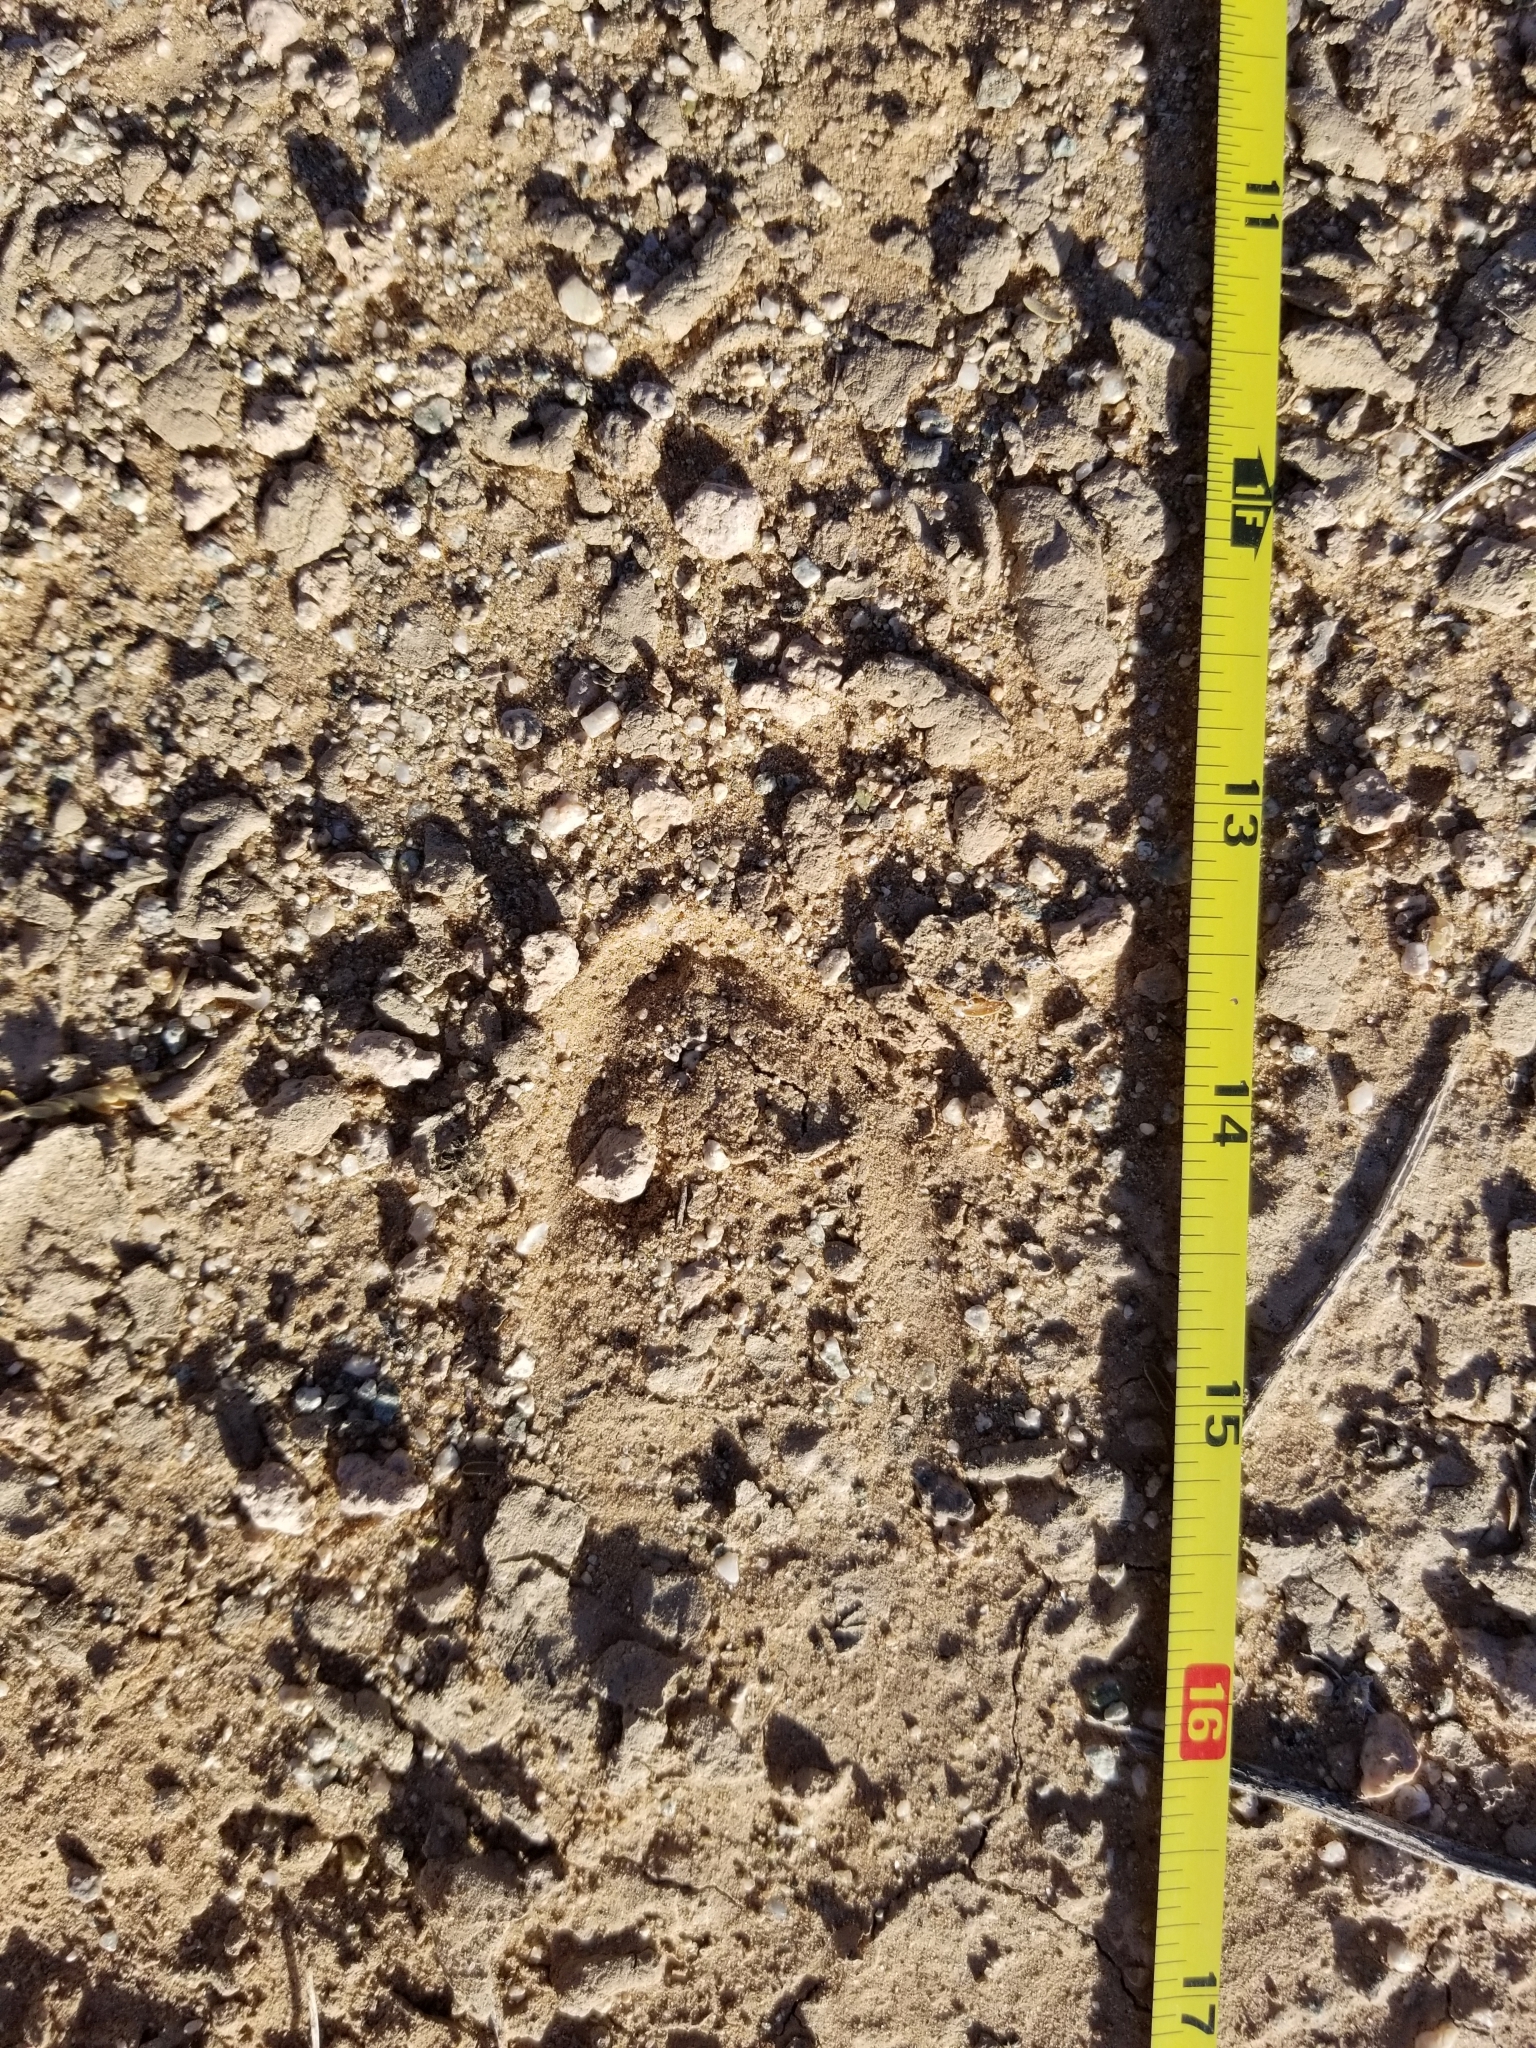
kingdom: Animalia
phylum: Chordata
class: Mammalia
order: Artiodactyla
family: Cervidae
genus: Odocoileus
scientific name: Odocoileus hemionus
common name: Mule deer
